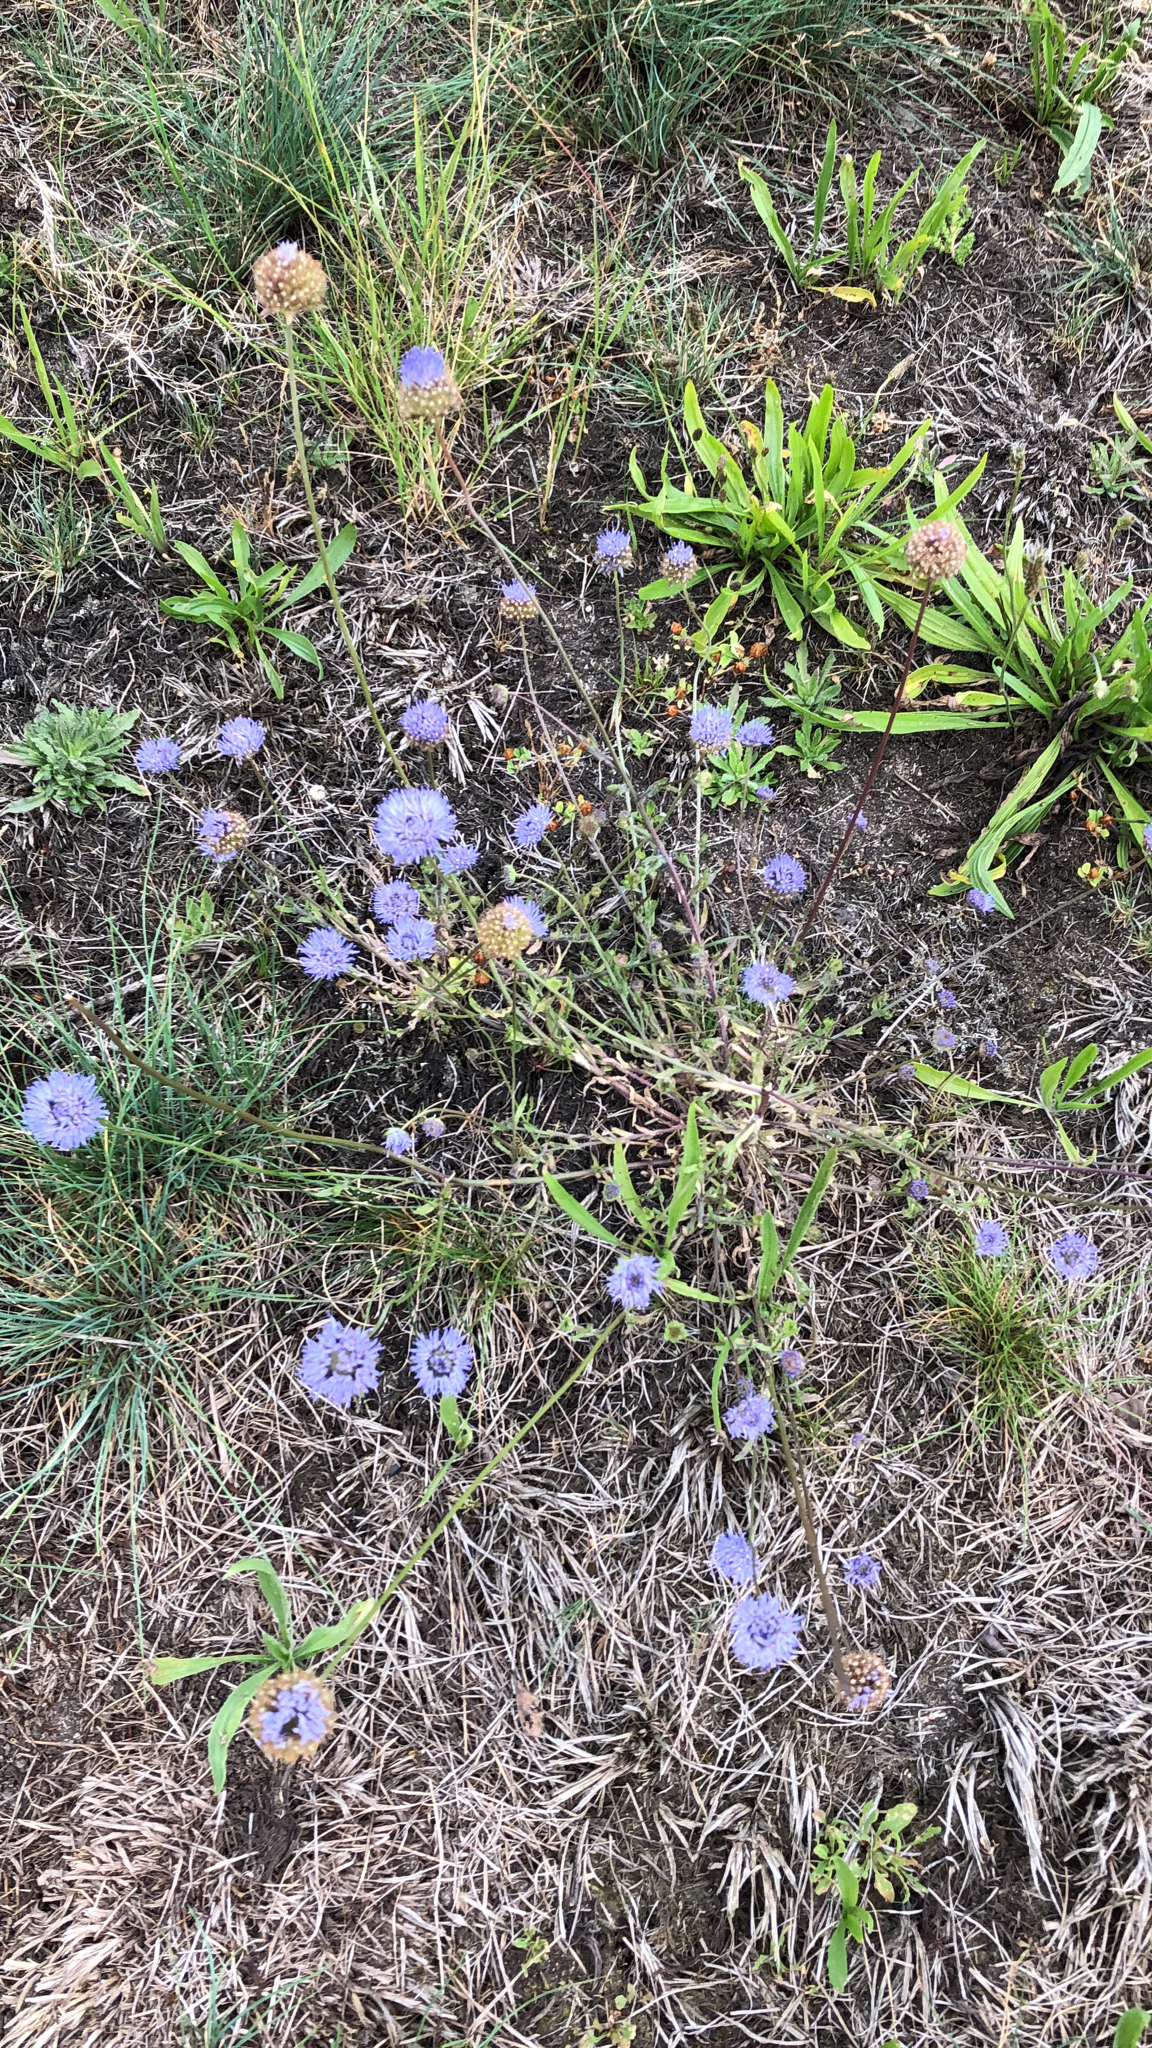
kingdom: Plantae
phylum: Tracheophyta
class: Magnoliopsida
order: Asterales
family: Campanulaceae
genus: Jasione
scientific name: Jasione montana
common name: Sheep's-bit
